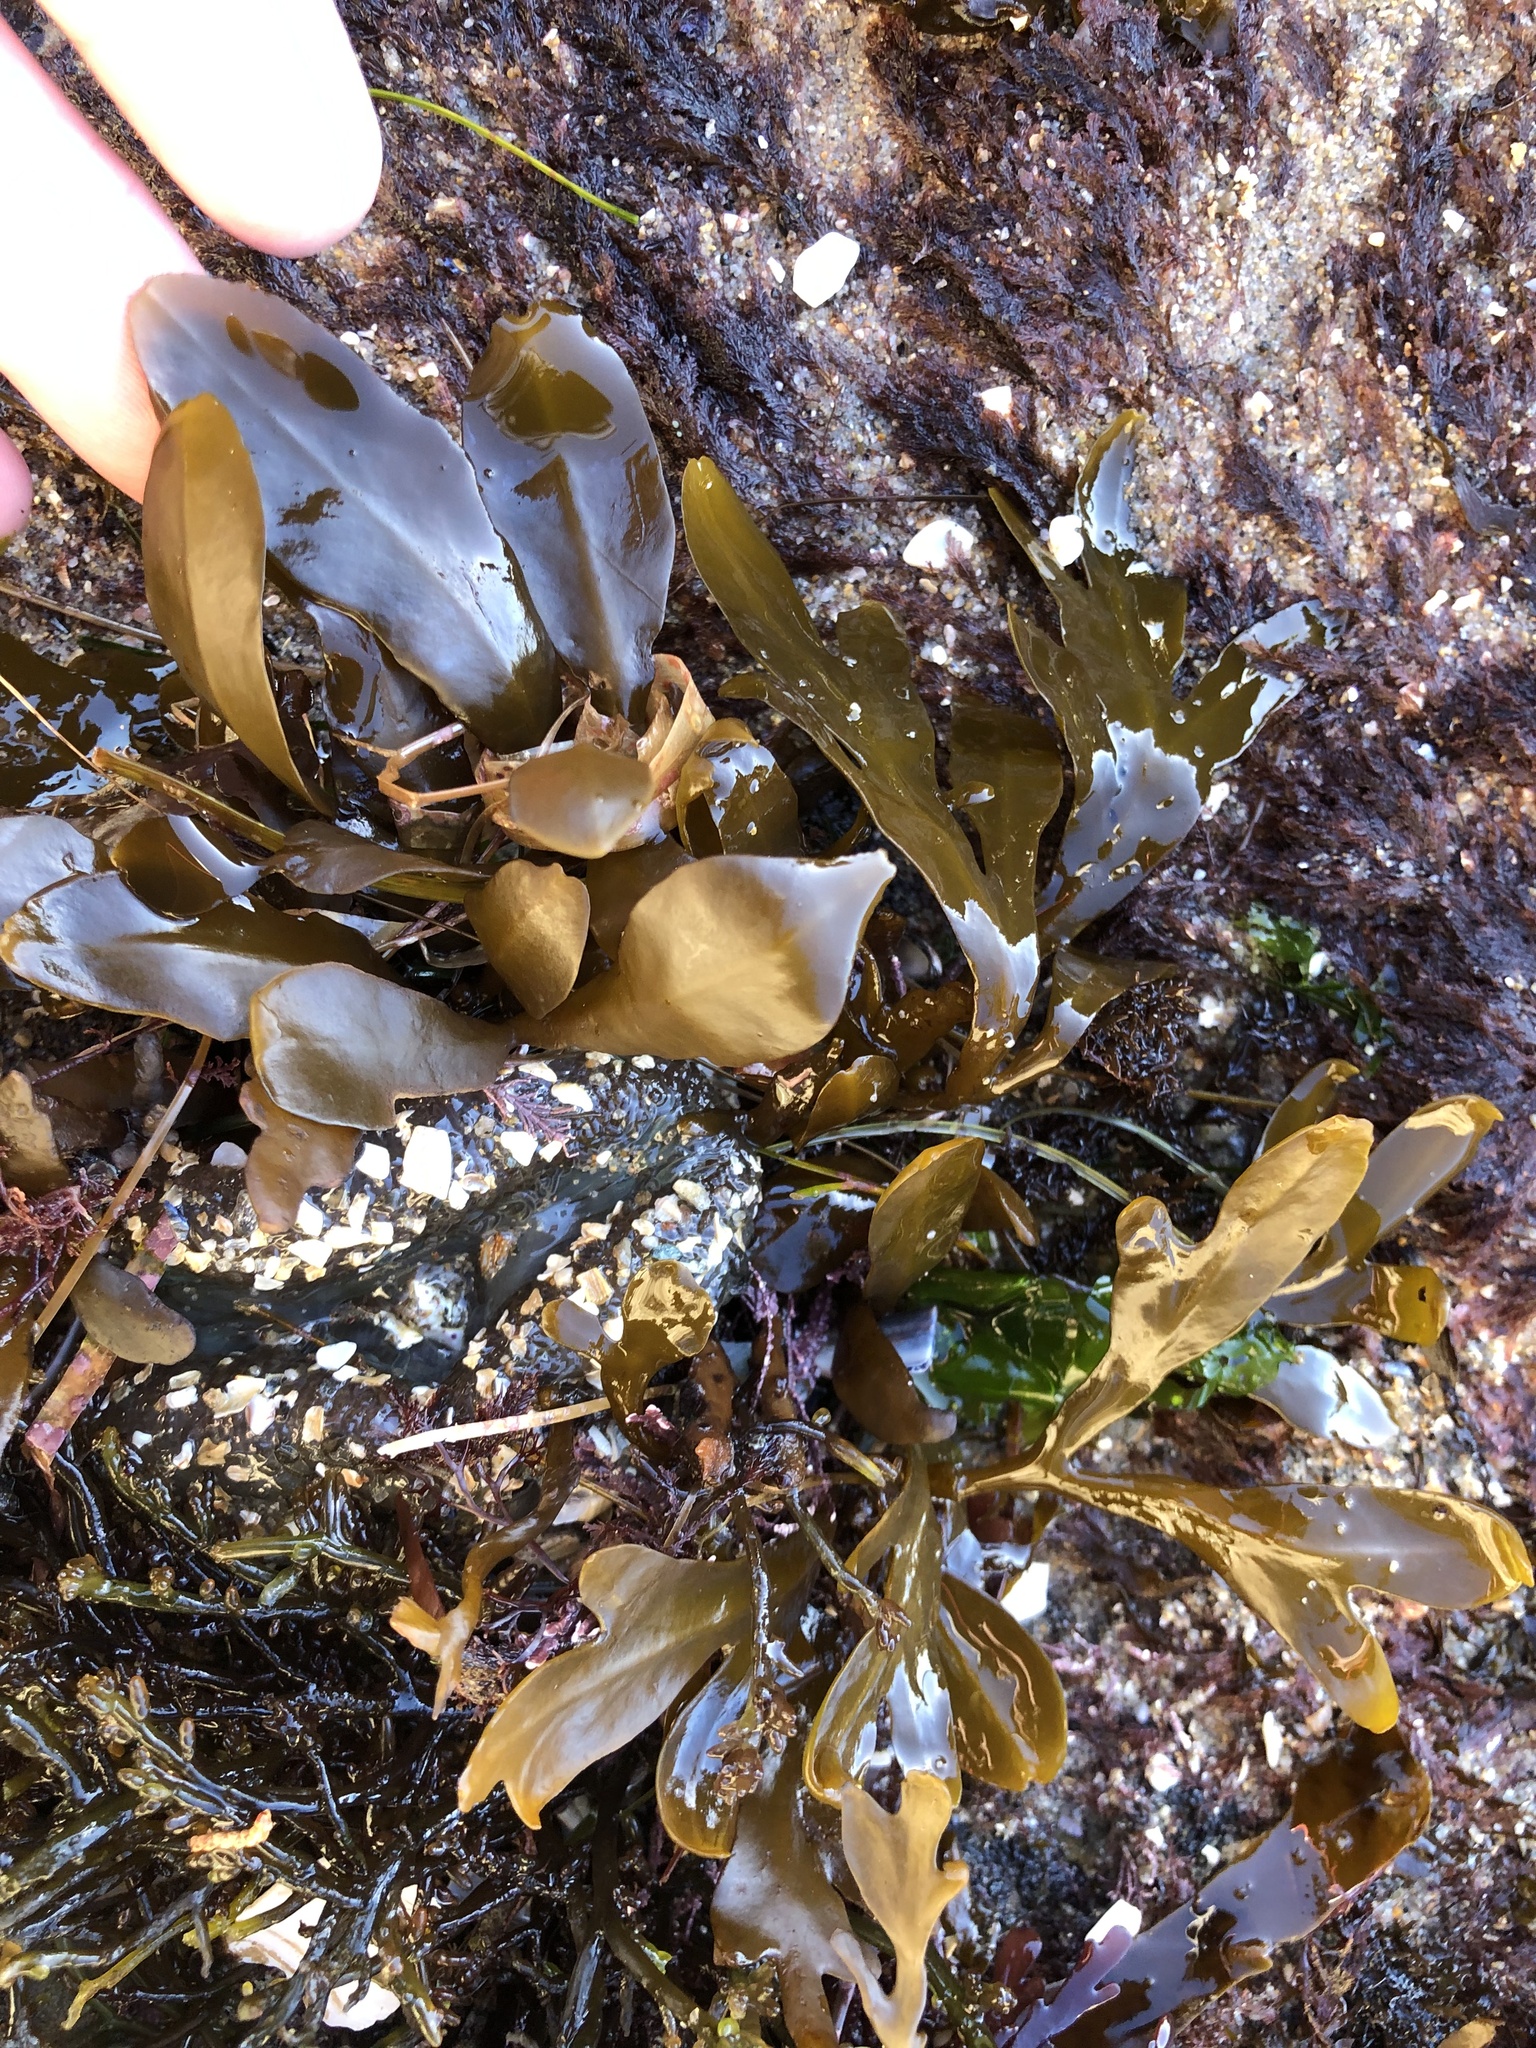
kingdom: Chromista
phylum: Ochrophyta
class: Phaeophyceae
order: Fucales
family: Sargassaceae
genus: Stephanocystis
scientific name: Stephanocystis
